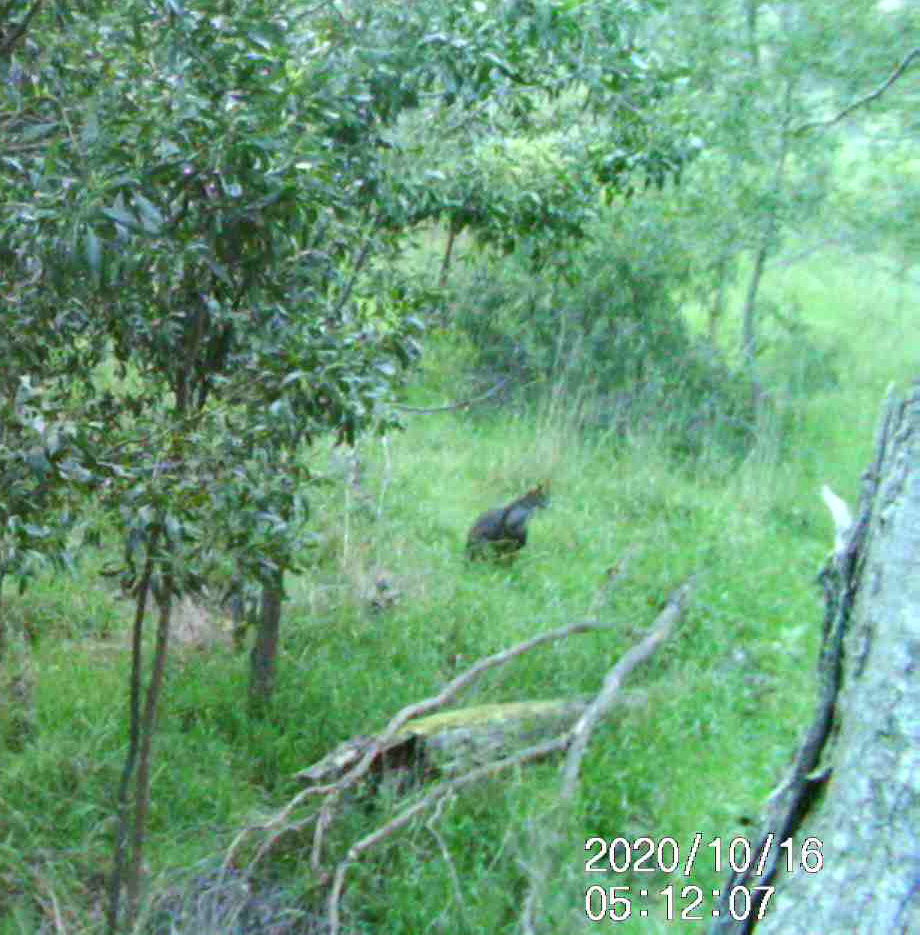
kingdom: Animalia
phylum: Chordata
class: Mammalia
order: Diprotodontia
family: Macropodidae
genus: Wallabia
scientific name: Wallabia bicolor
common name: Swamp wallaby
